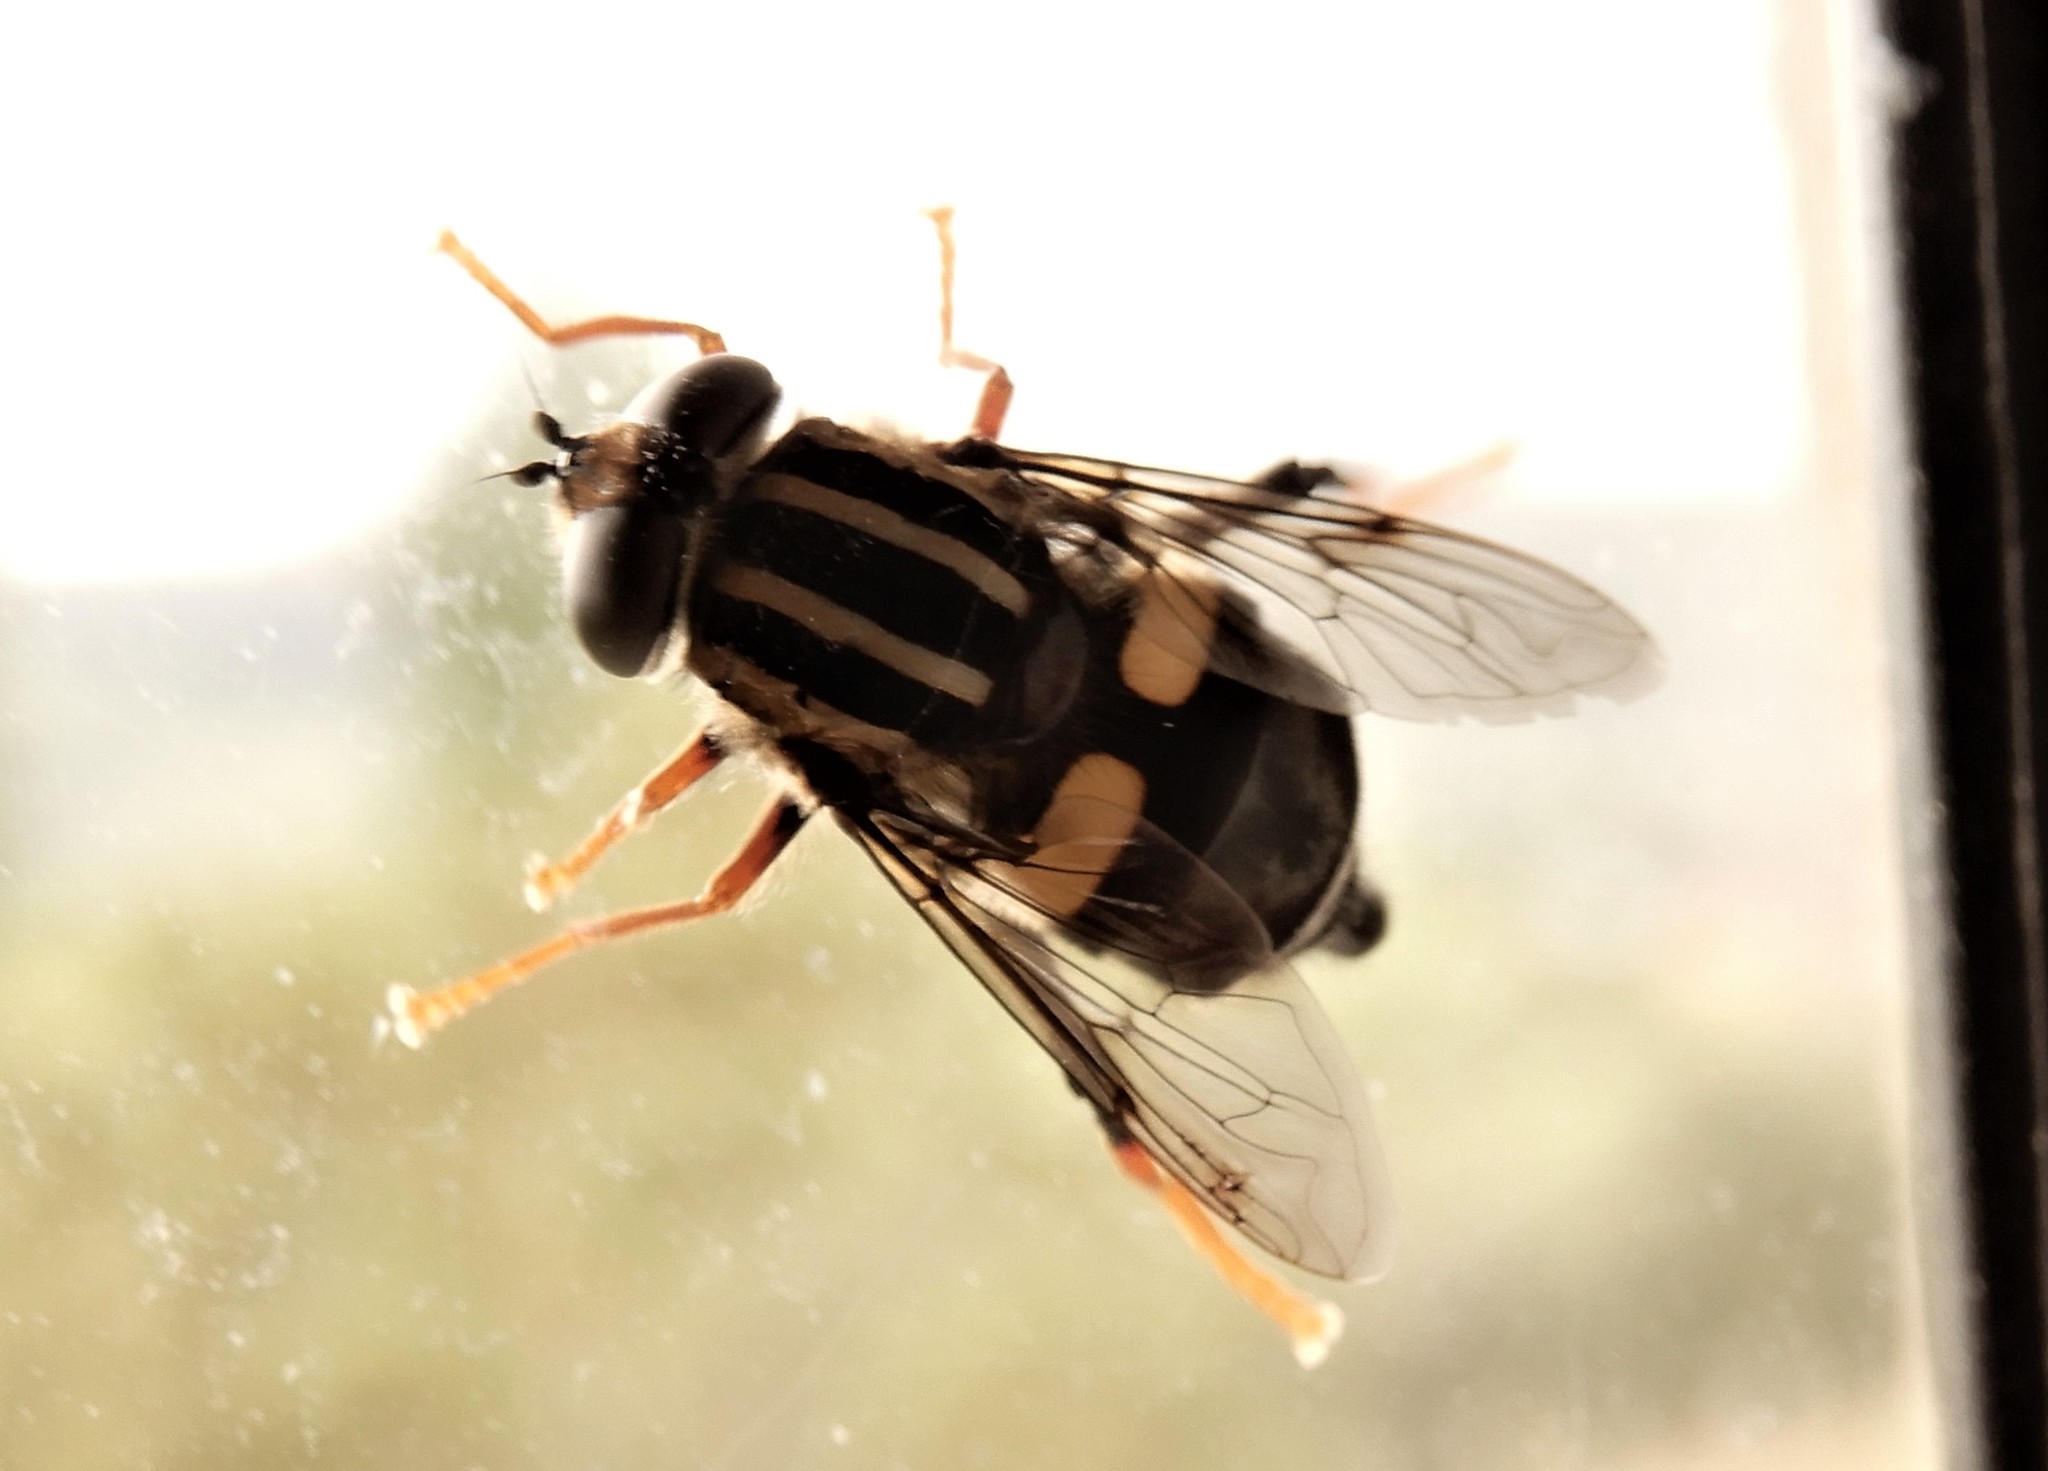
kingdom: Animalia
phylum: Arthropoda
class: Insecta
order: Diptera
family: Syrphidae
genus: Helophilus
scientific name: Helophilus seelandicus
